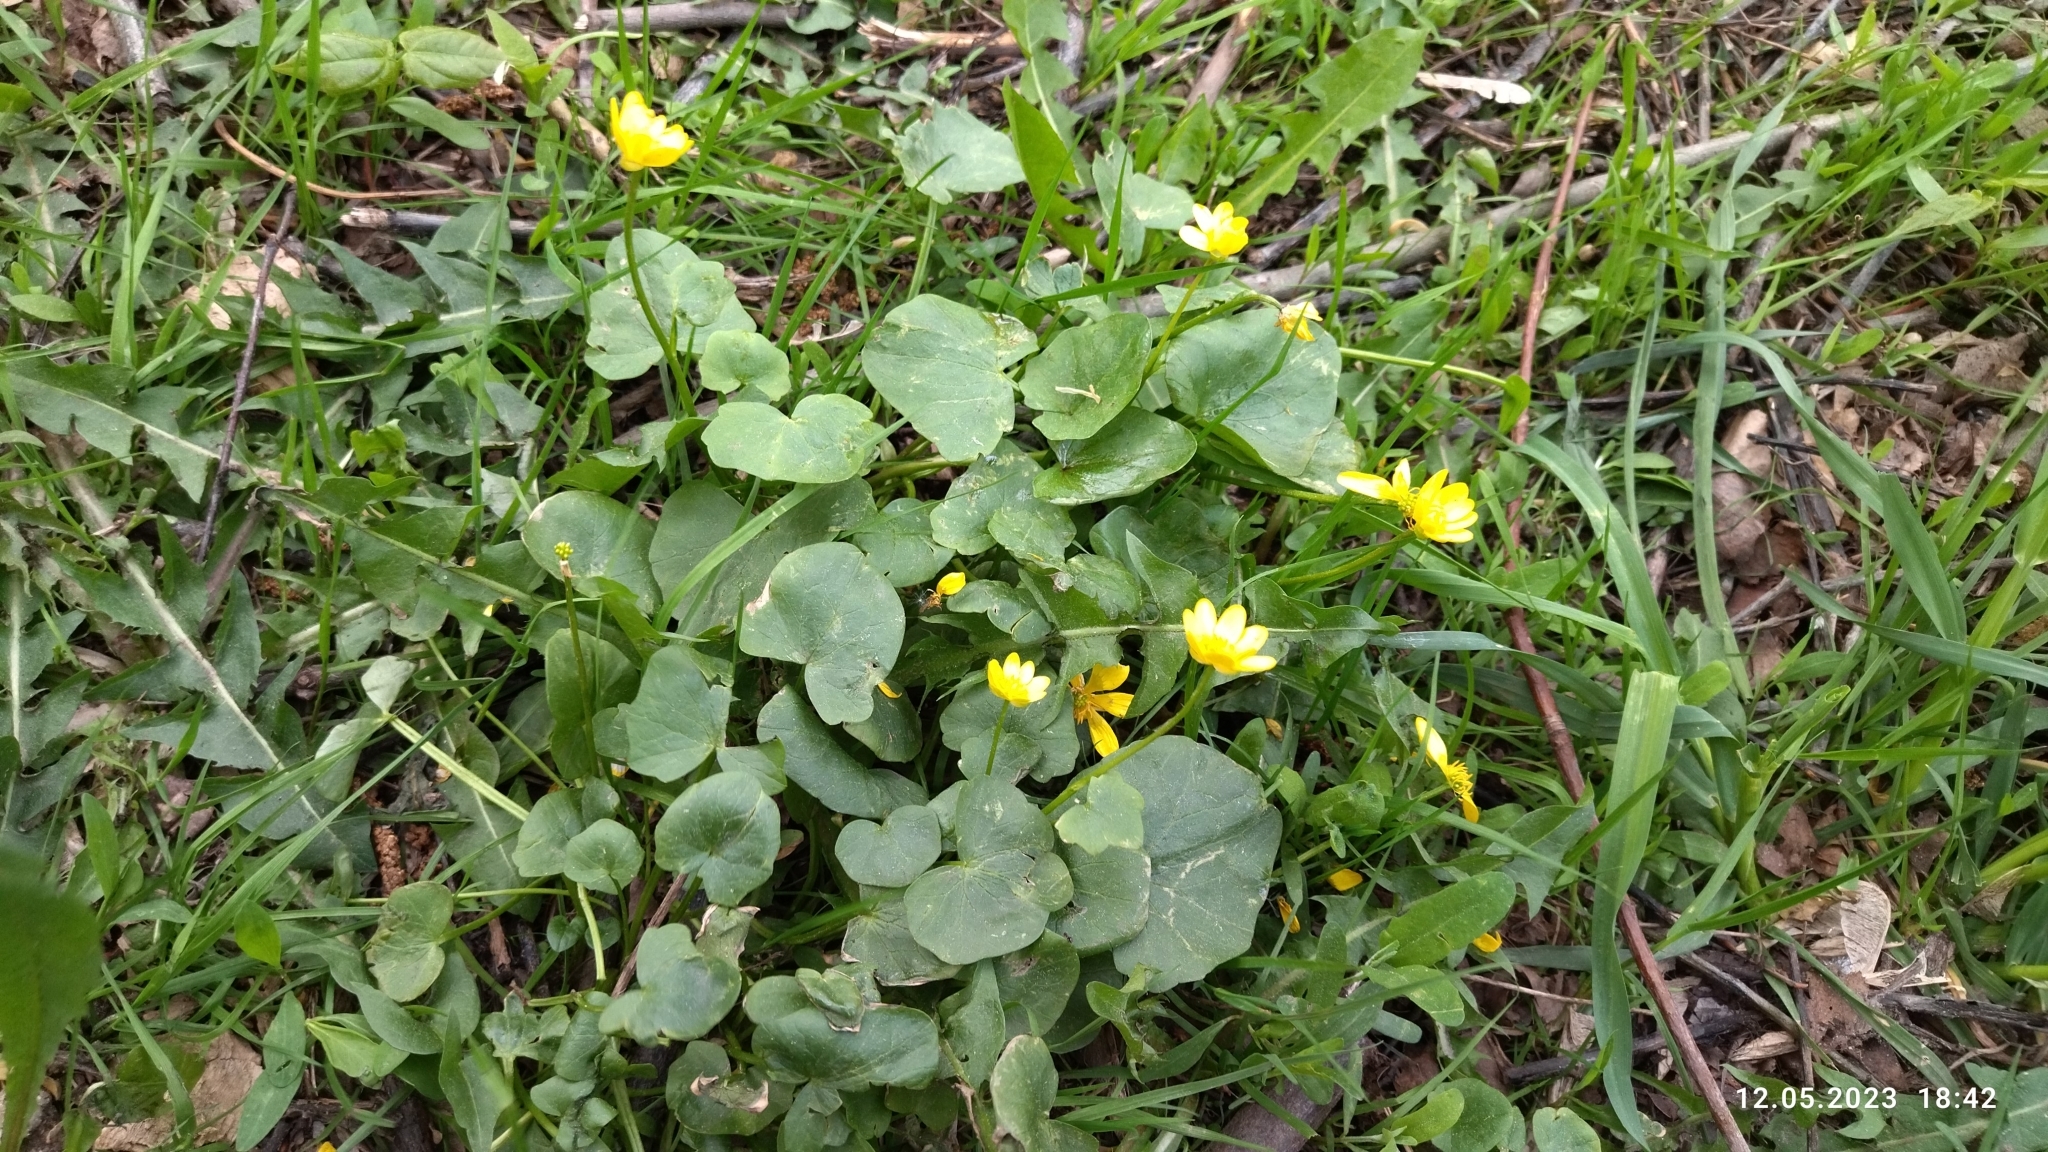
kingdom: Plantae
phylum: Tracheophyta
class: Magnoliopsida
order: Ranunculales
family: Ranunculaceae
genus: Ficaria
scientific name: Ficaria verna
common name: Lesser celandine
